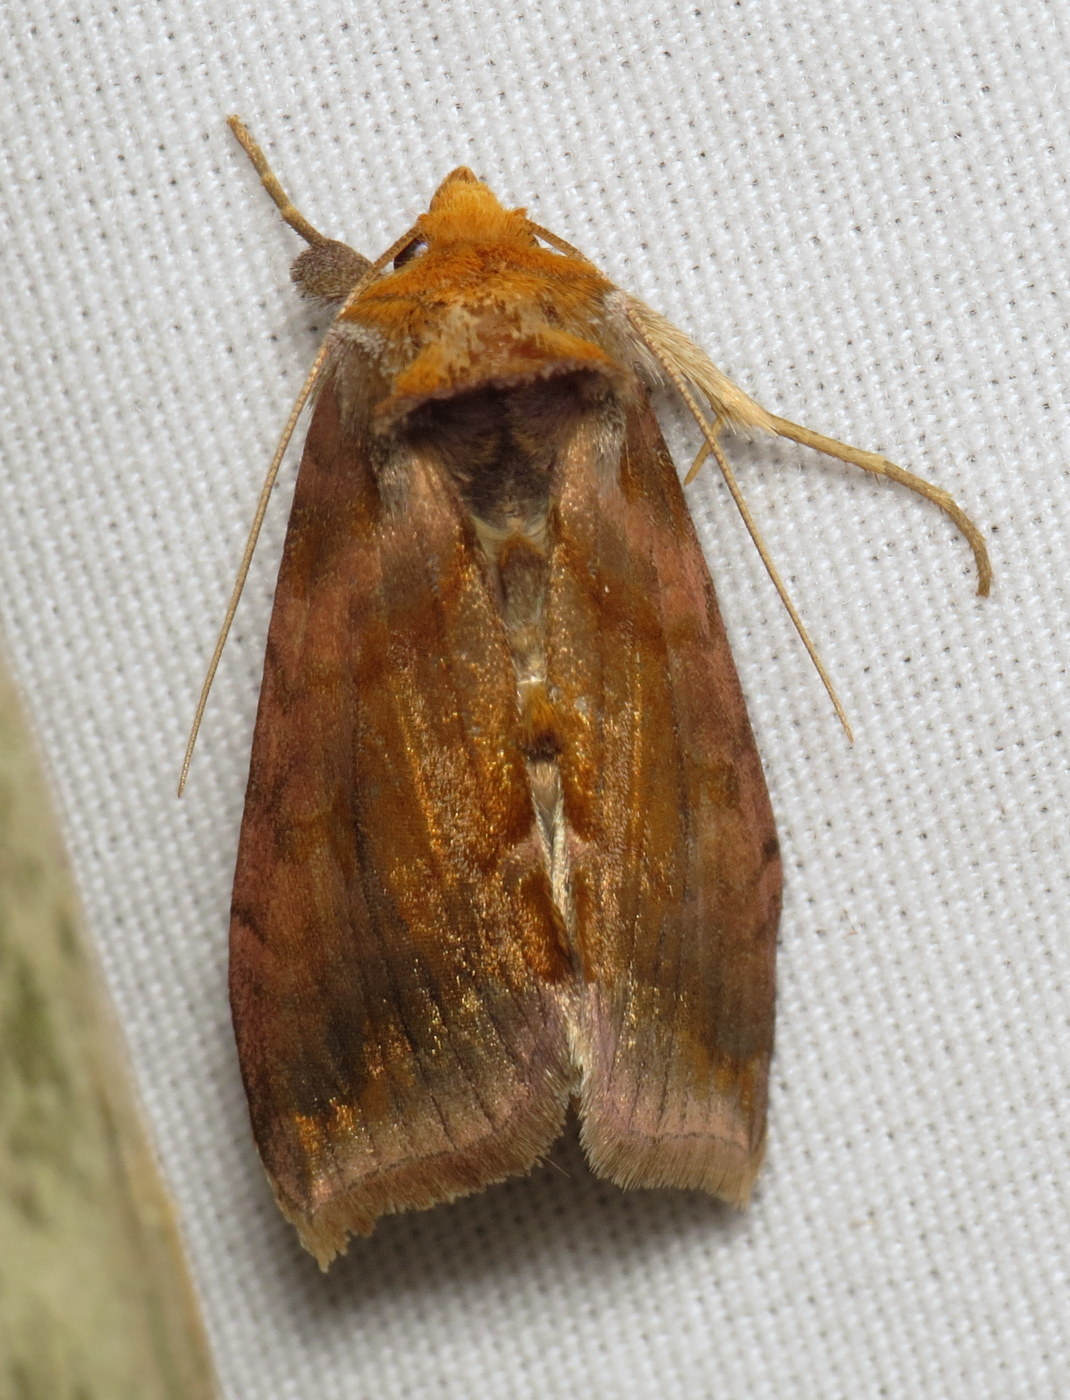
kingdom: Animalia
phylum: Arthropoda
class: Insecta
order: Lepidoptera
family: Noctuidae
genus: Allagrapha
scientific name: Allagrapha aerea
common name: Unspotted looper moth
